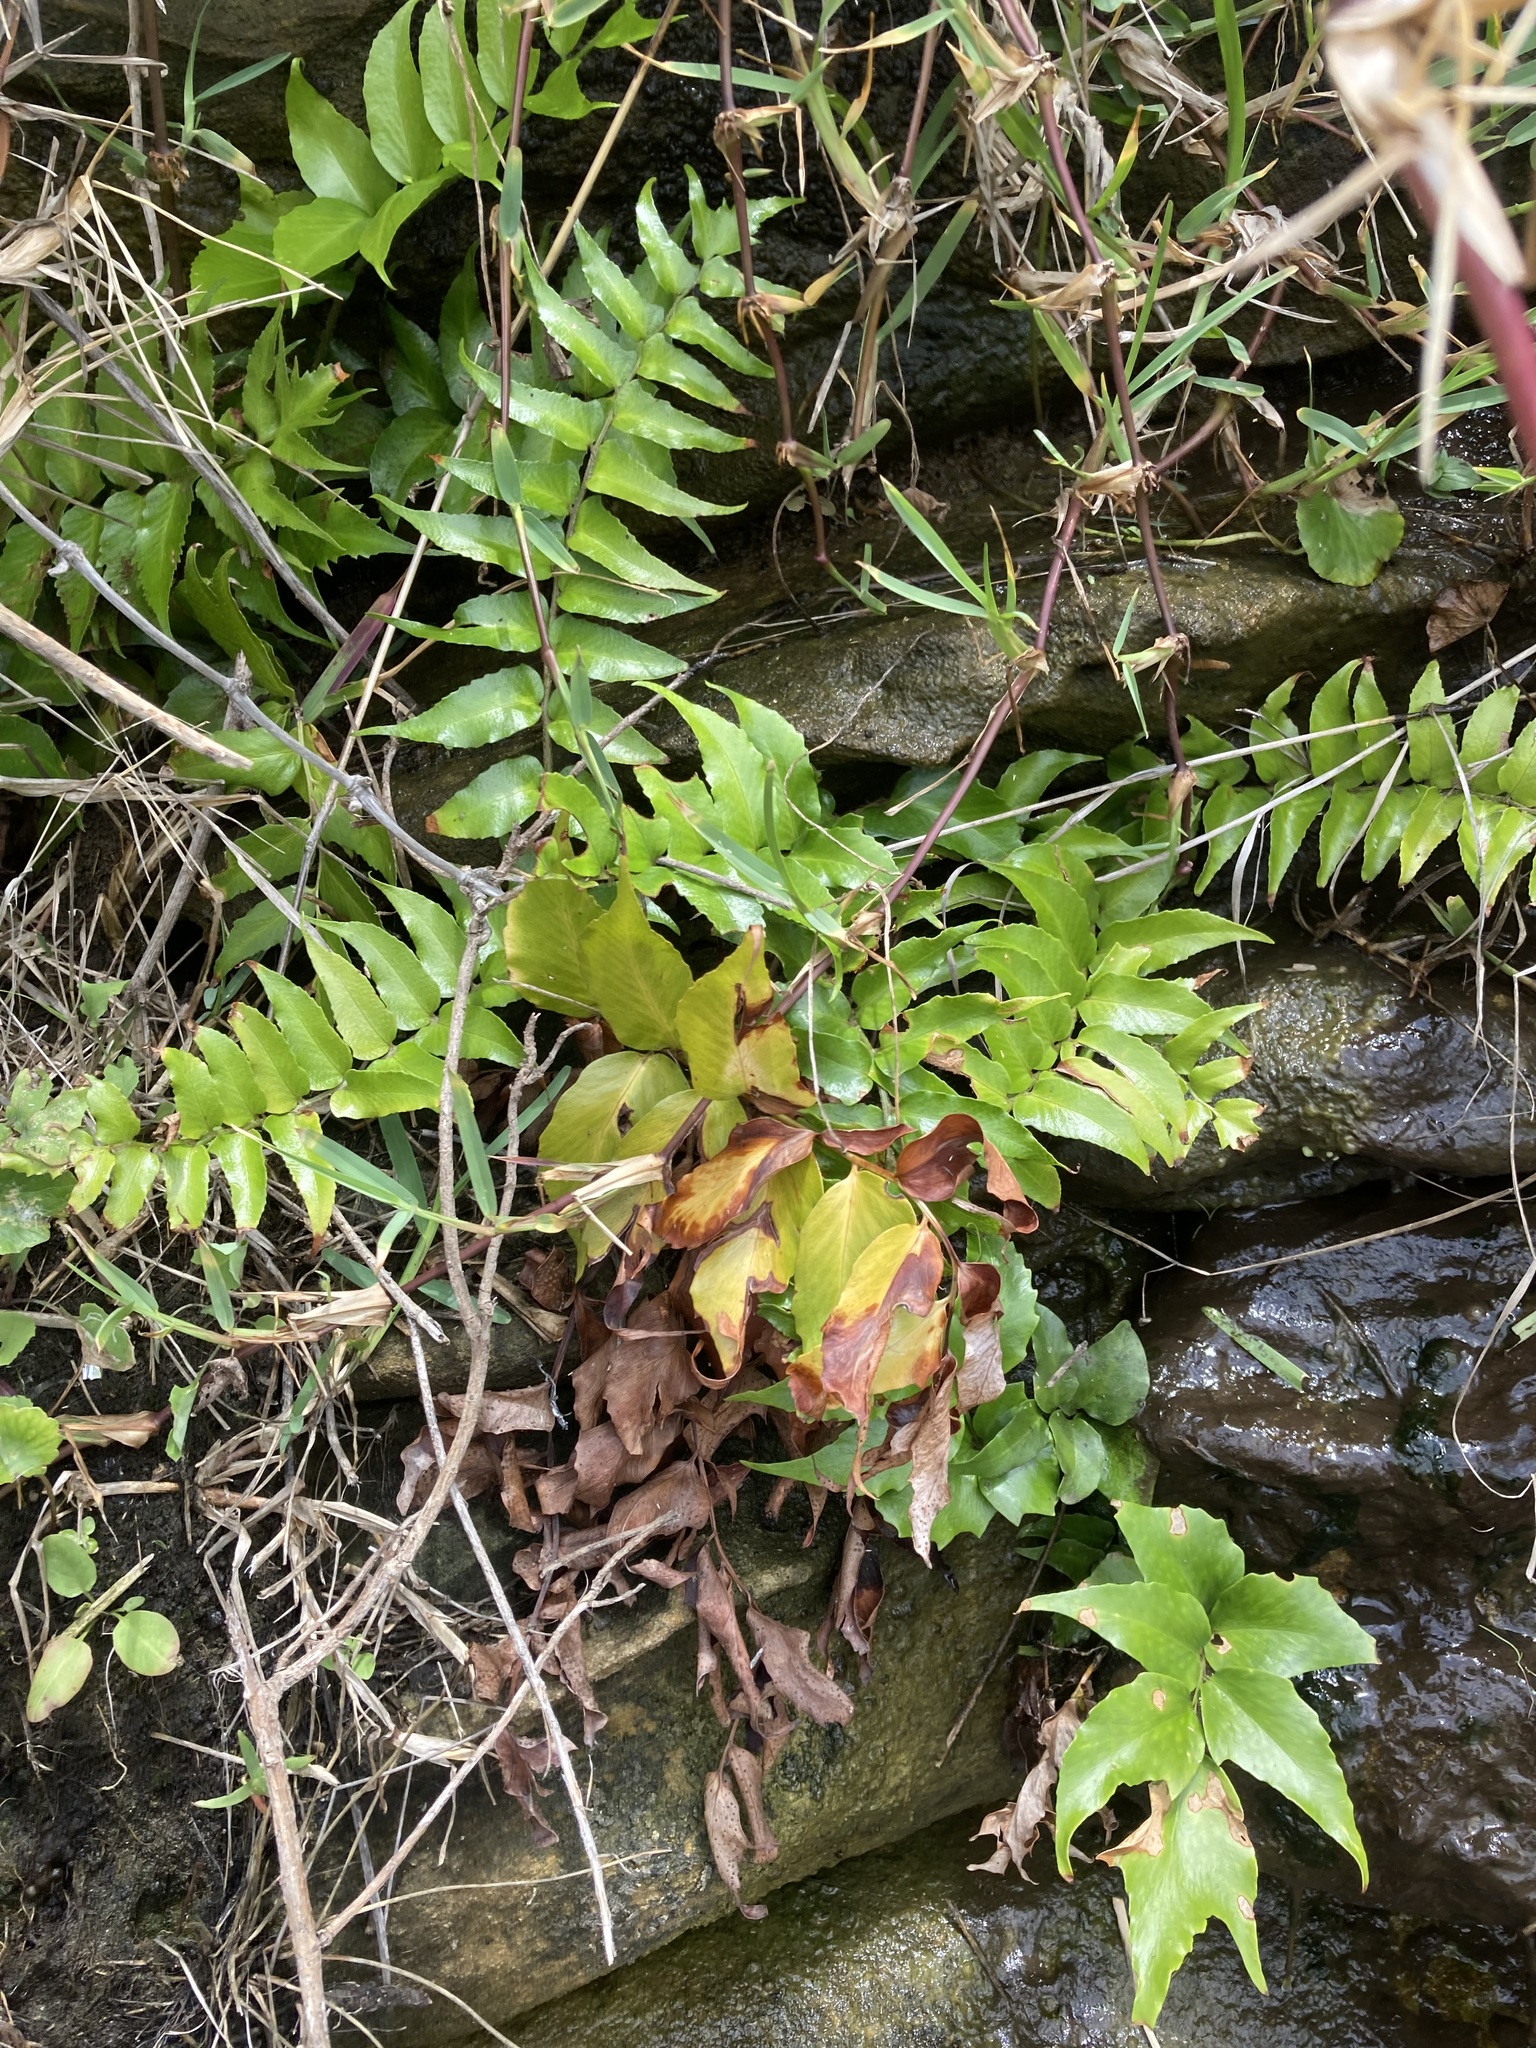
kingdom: Plantae
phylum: Tracheophyta
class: Polypodiopsida
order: Polypodiales
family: Dryopteridaceae
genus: Cyrtomium
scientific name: Cyrtomium falcatum
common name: House holly-fern
